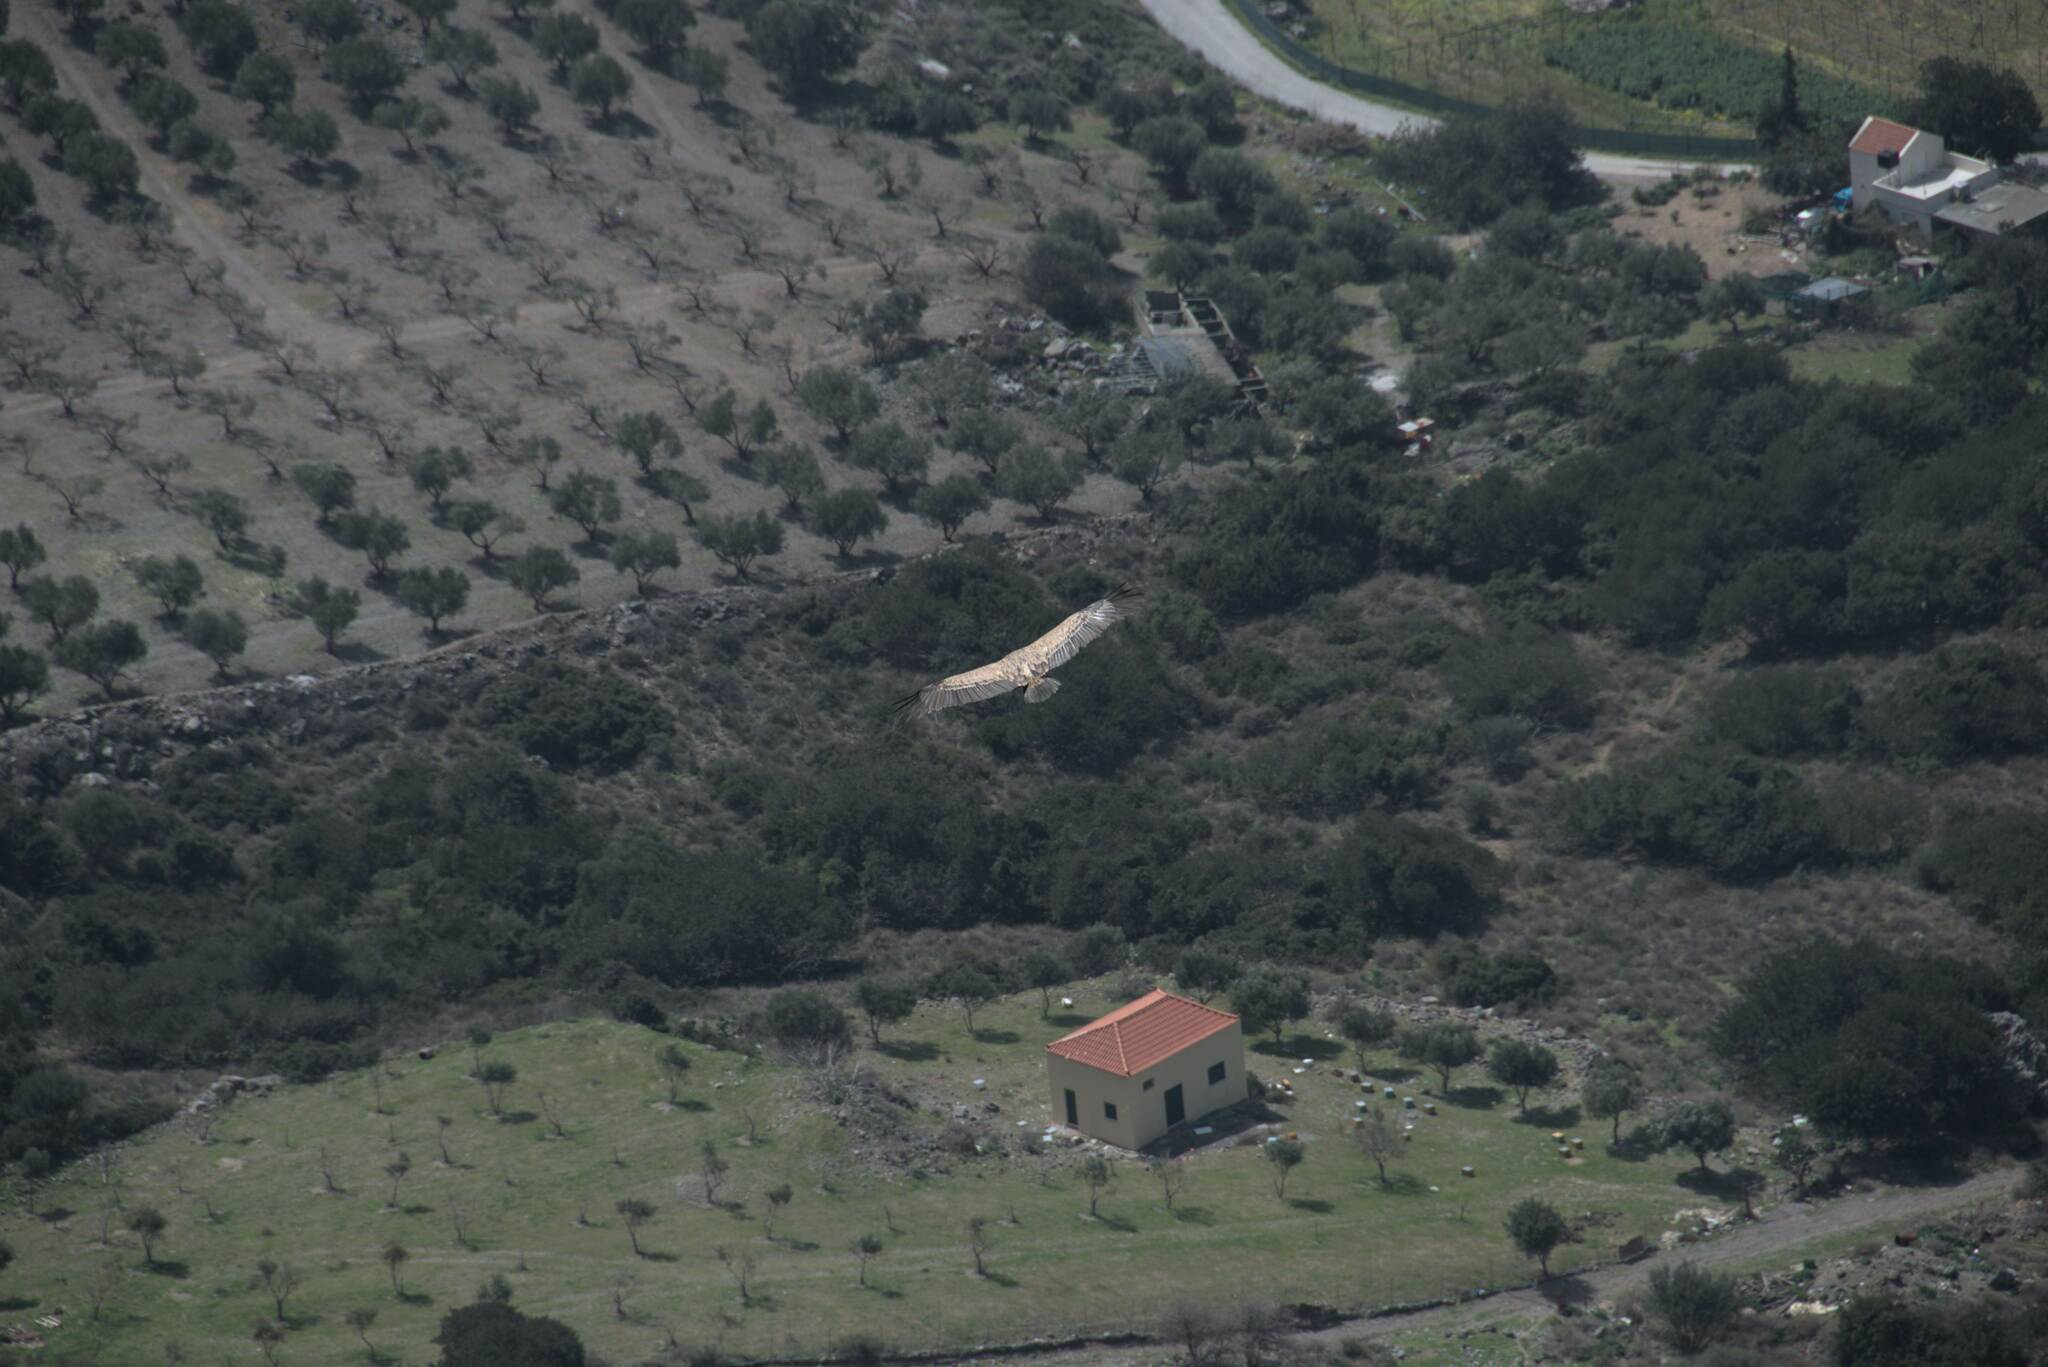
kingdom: Animalia
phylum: Chordata
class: Aves
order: Accipitriformes
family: Accipitridae
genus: Gyps
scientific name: Gyps fulvus
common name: Griffon vulture
